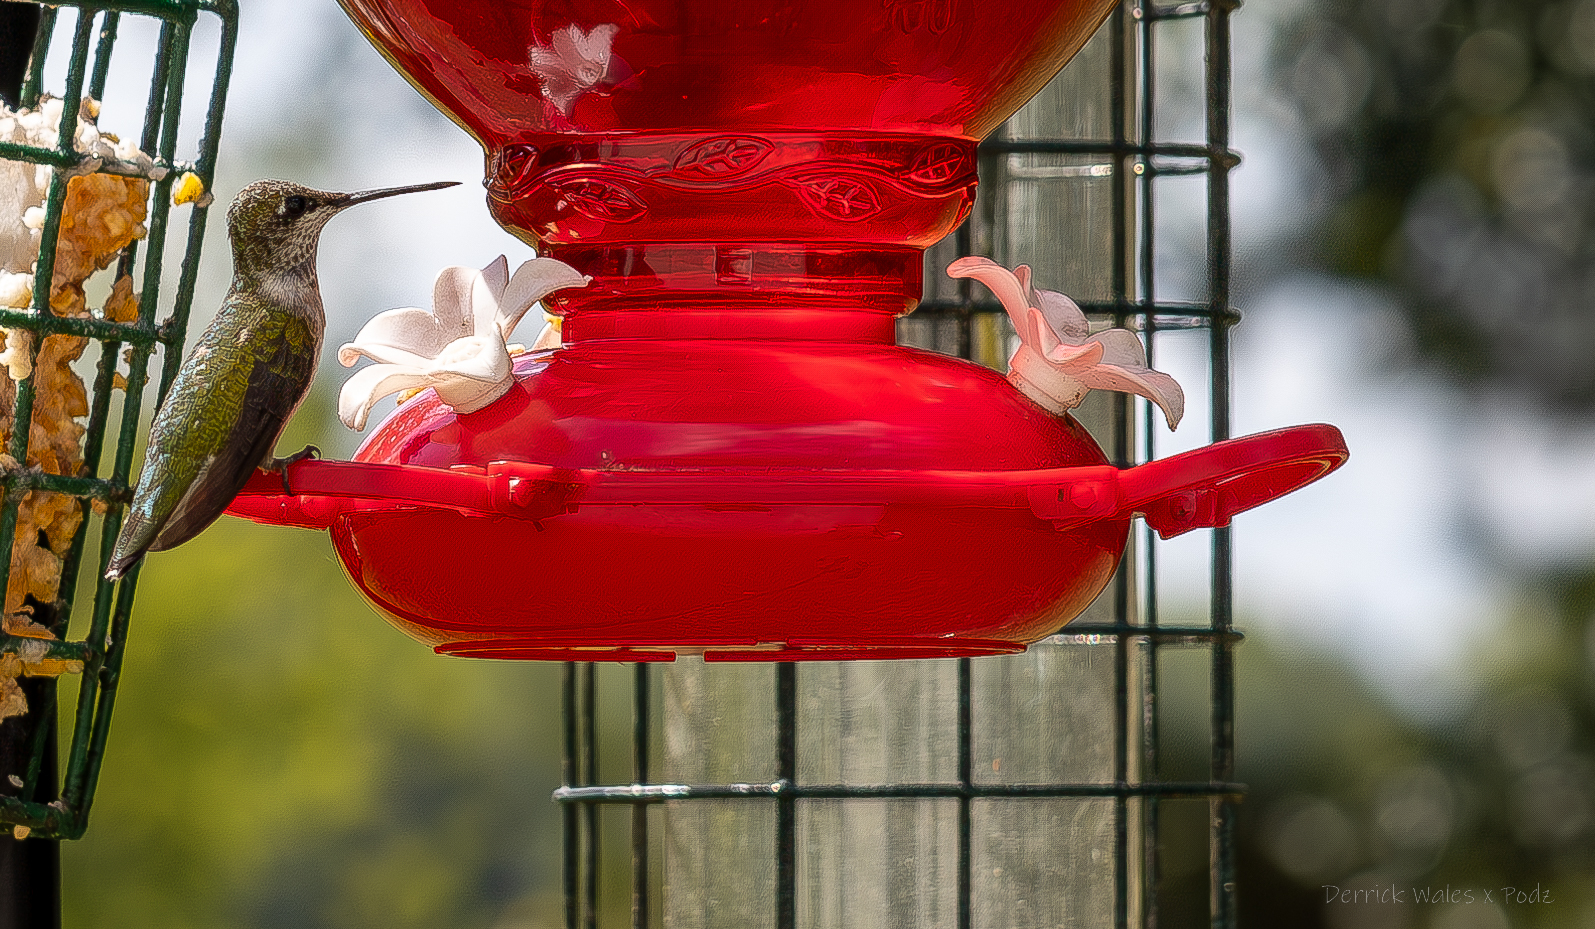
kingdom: Animalia
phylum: Chordata
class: Aves
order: Apodiformes
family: Trochilidae
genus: Archilochus
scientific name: Archilochus colubris
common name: Ruby-throated hummingbird
